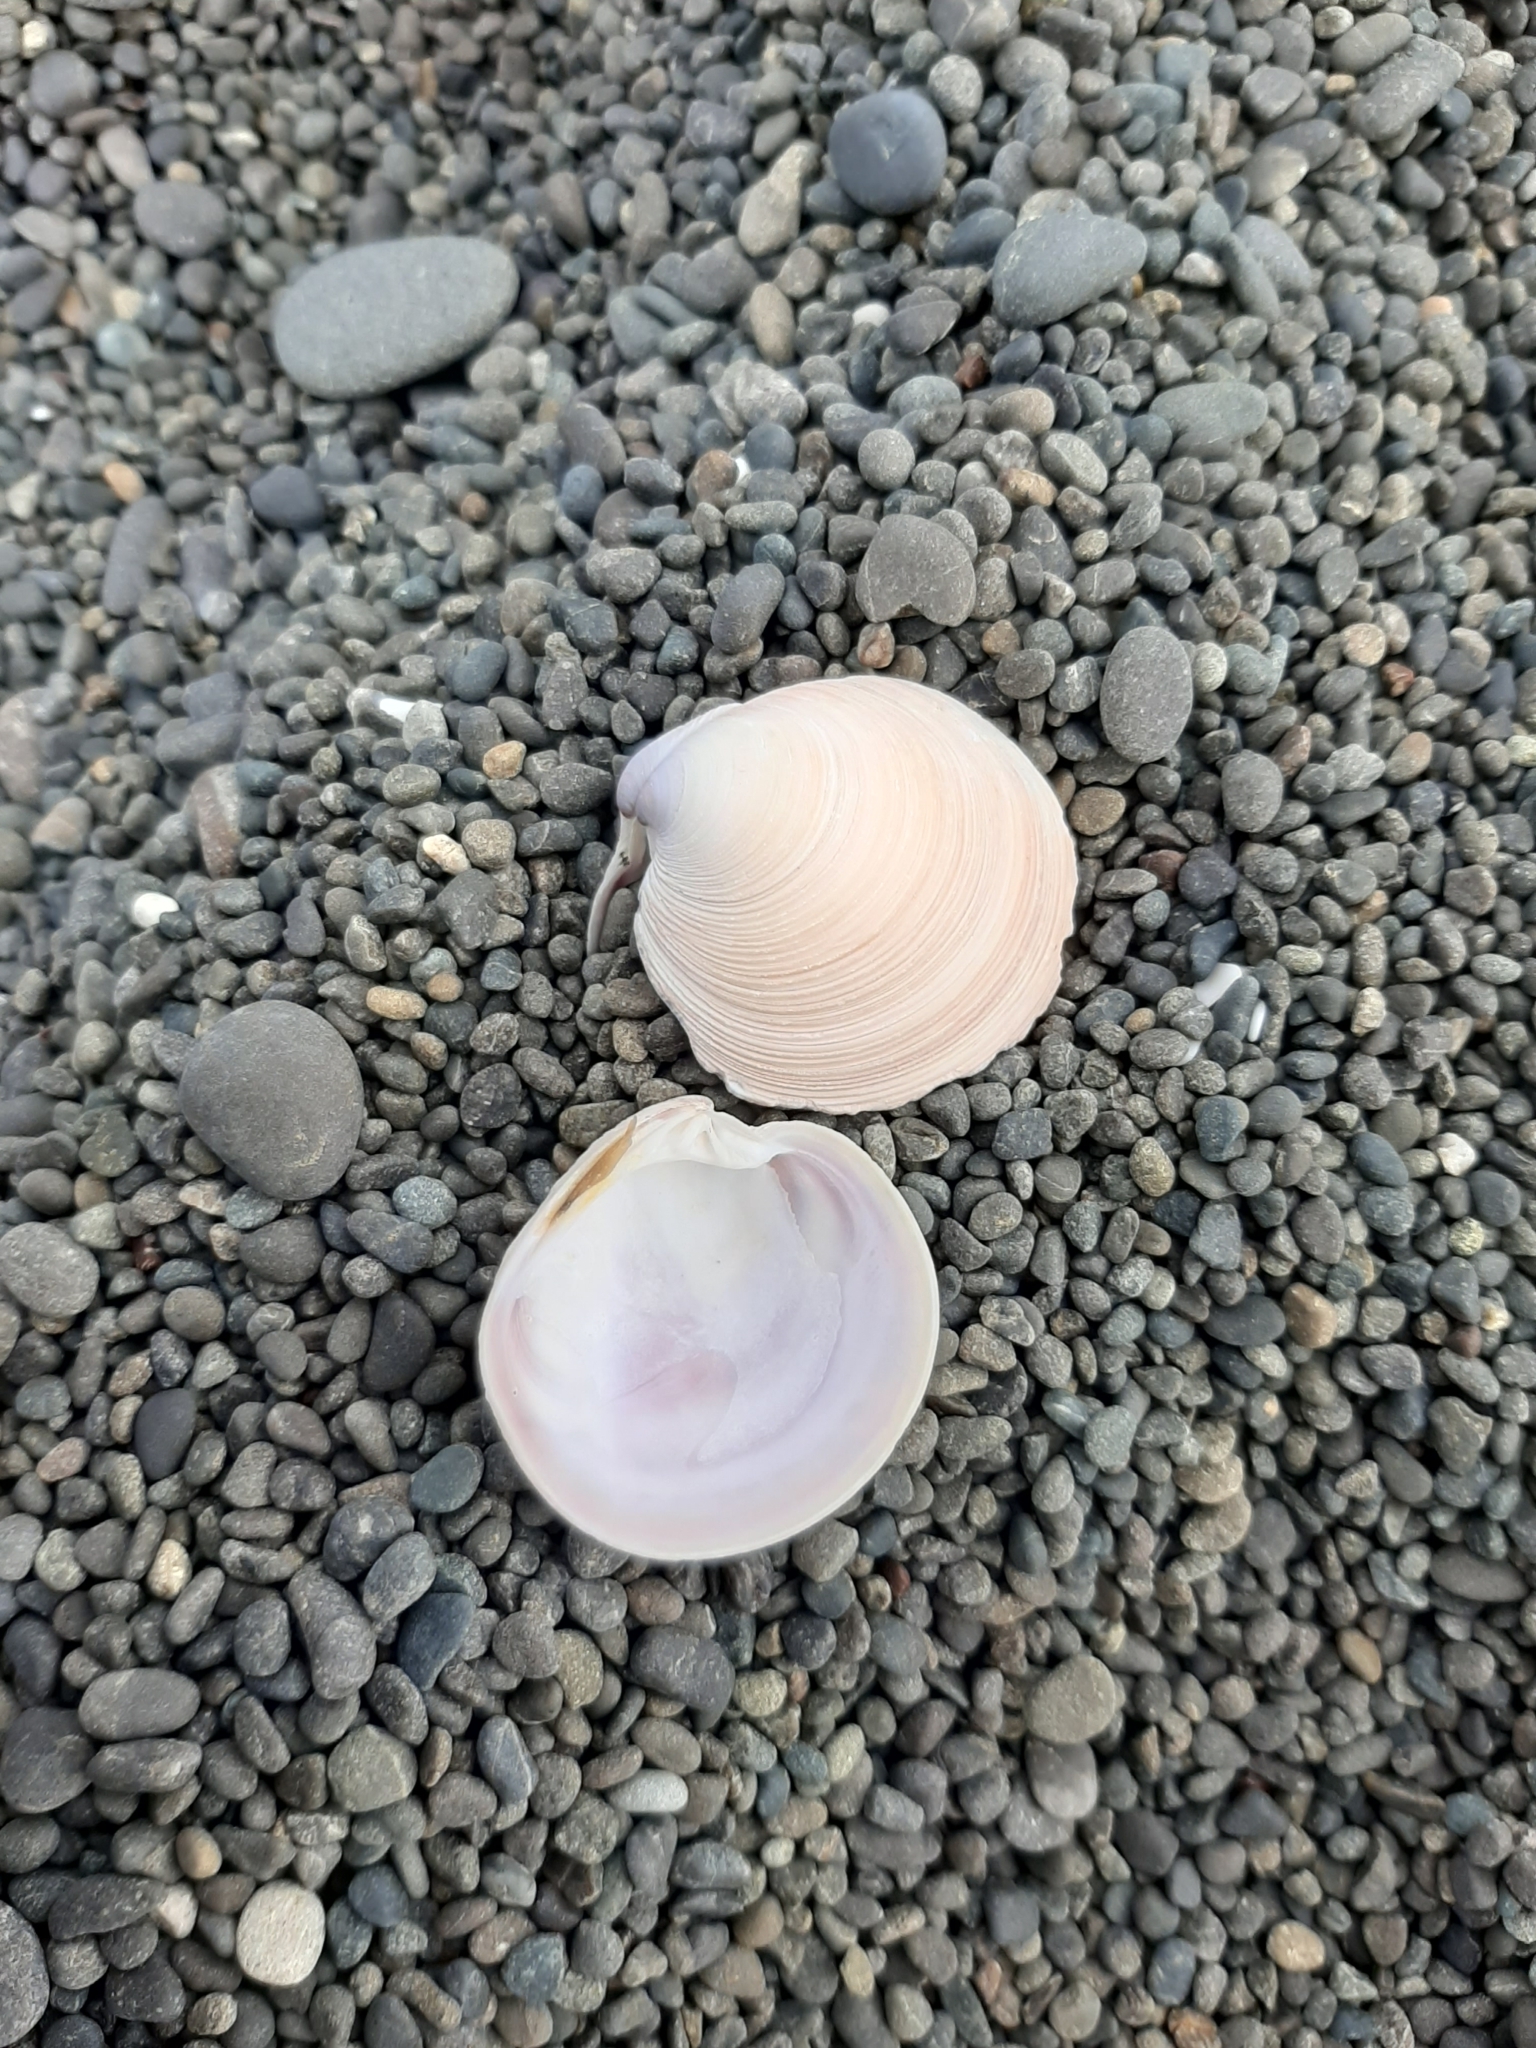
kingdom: Animalia
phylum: Mollusca
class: Bivalvia
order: Venerida
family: Veneridae
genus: Dosinia
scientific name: Dosinia anus
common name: Old-woman dosinia
